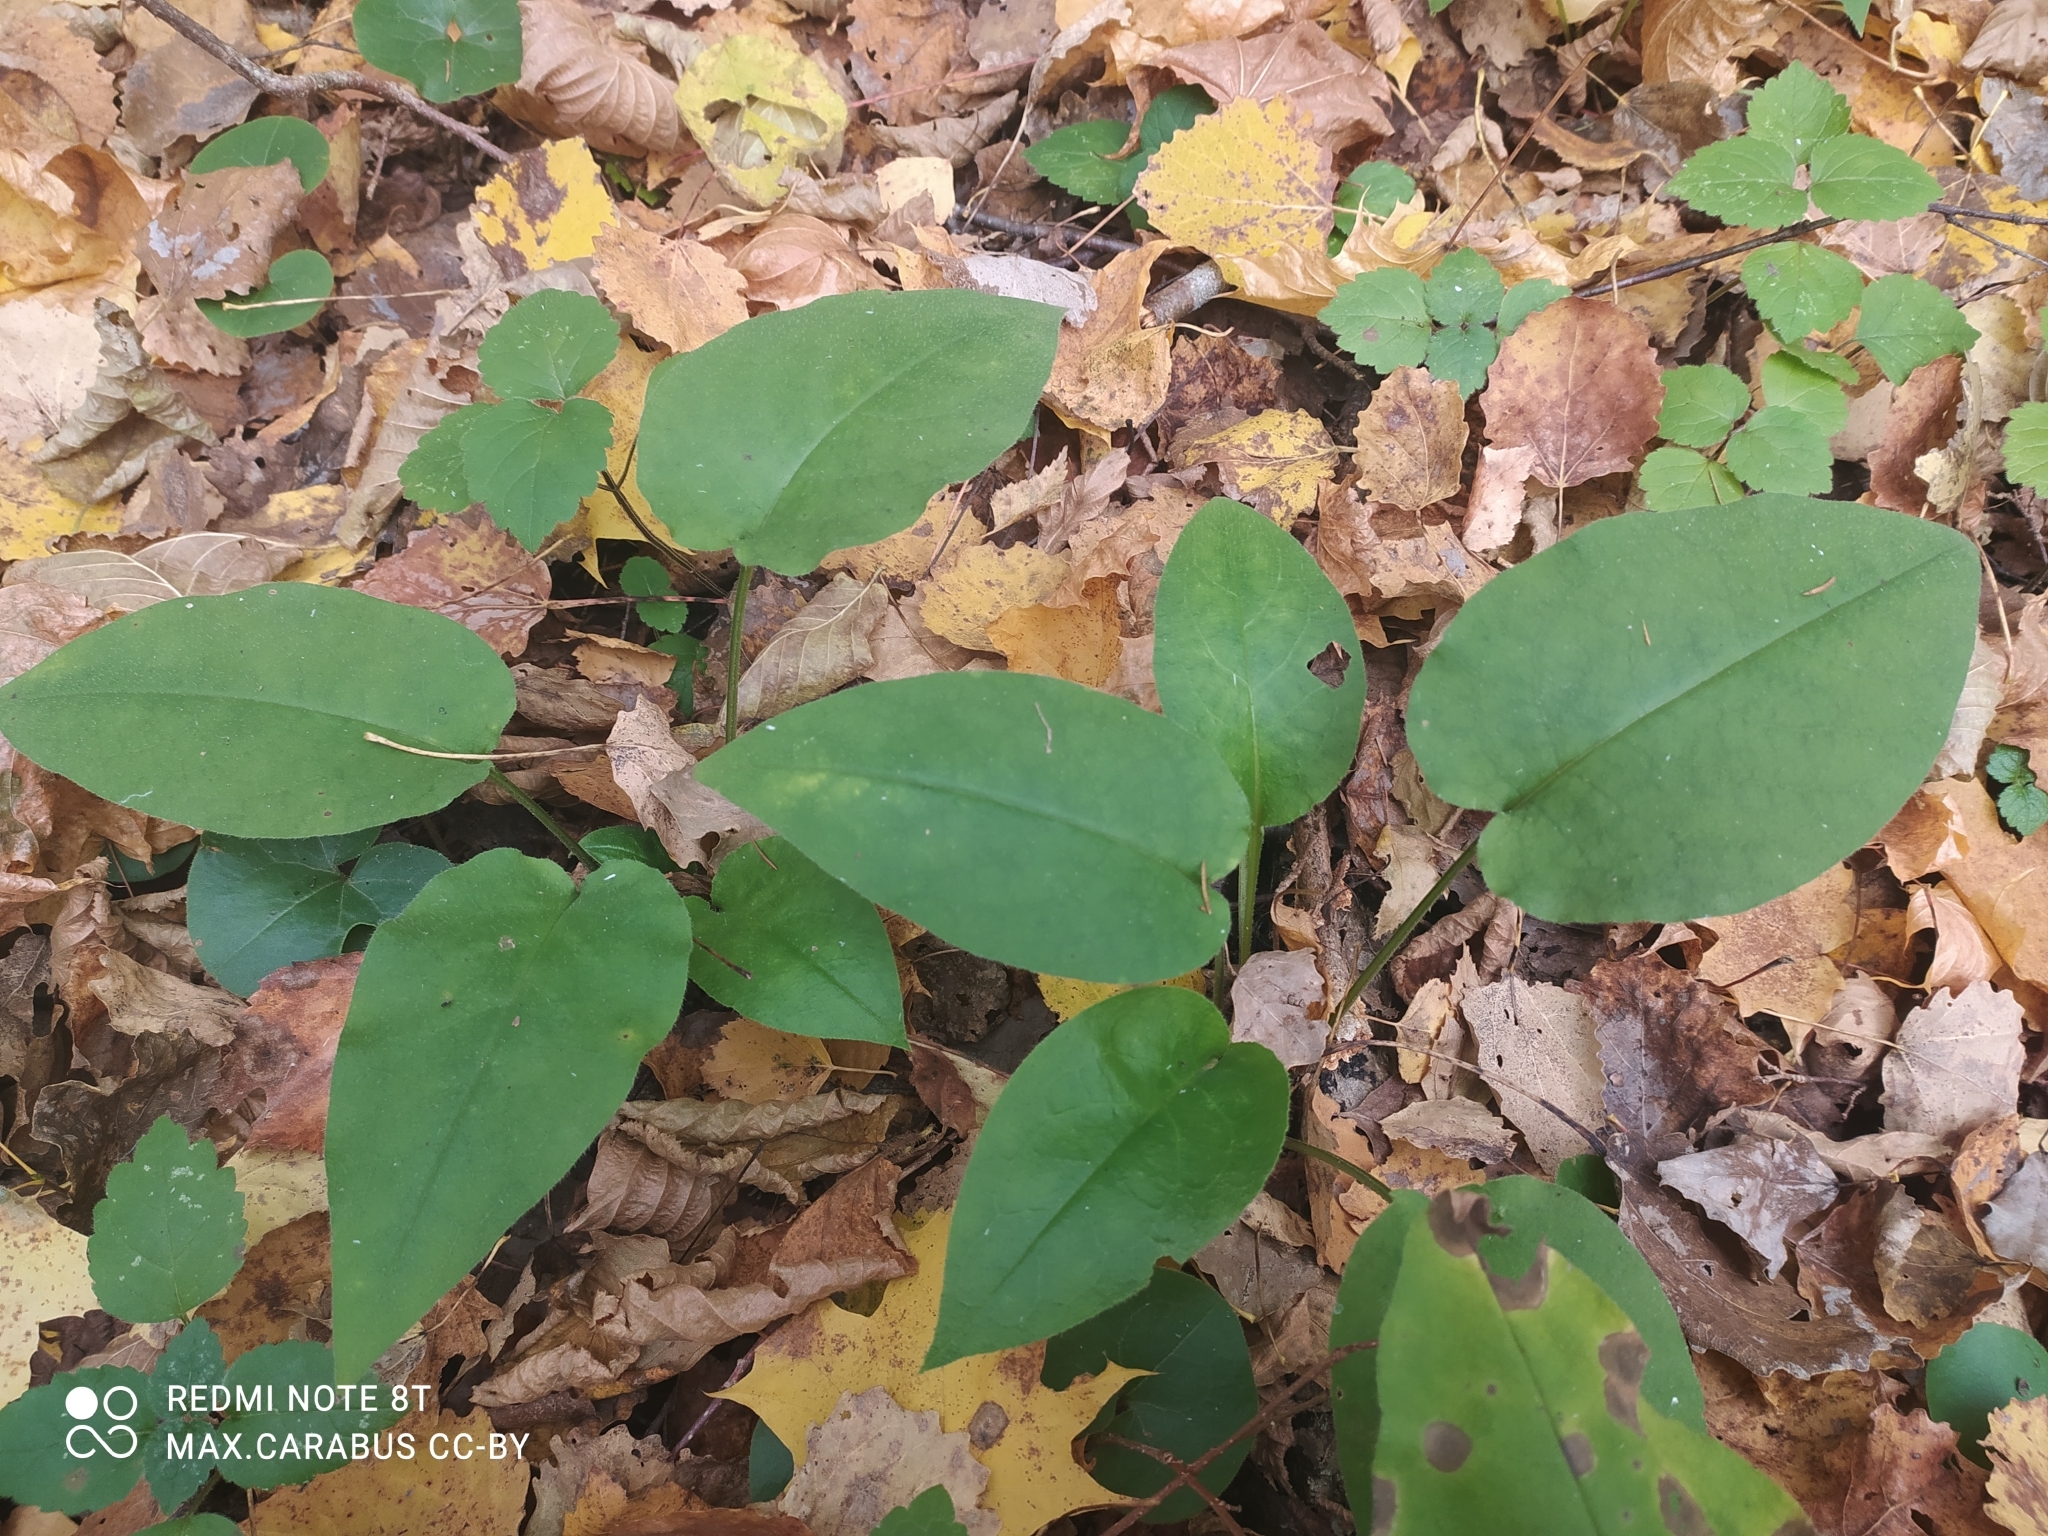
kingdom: Plantae
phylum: Tracheophyta
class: Magnoliopsida
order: Boraginales
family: Boraginaceae
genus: Pulmonaria
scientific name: Pulmonaria obscura
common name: Suffolk lungwort
